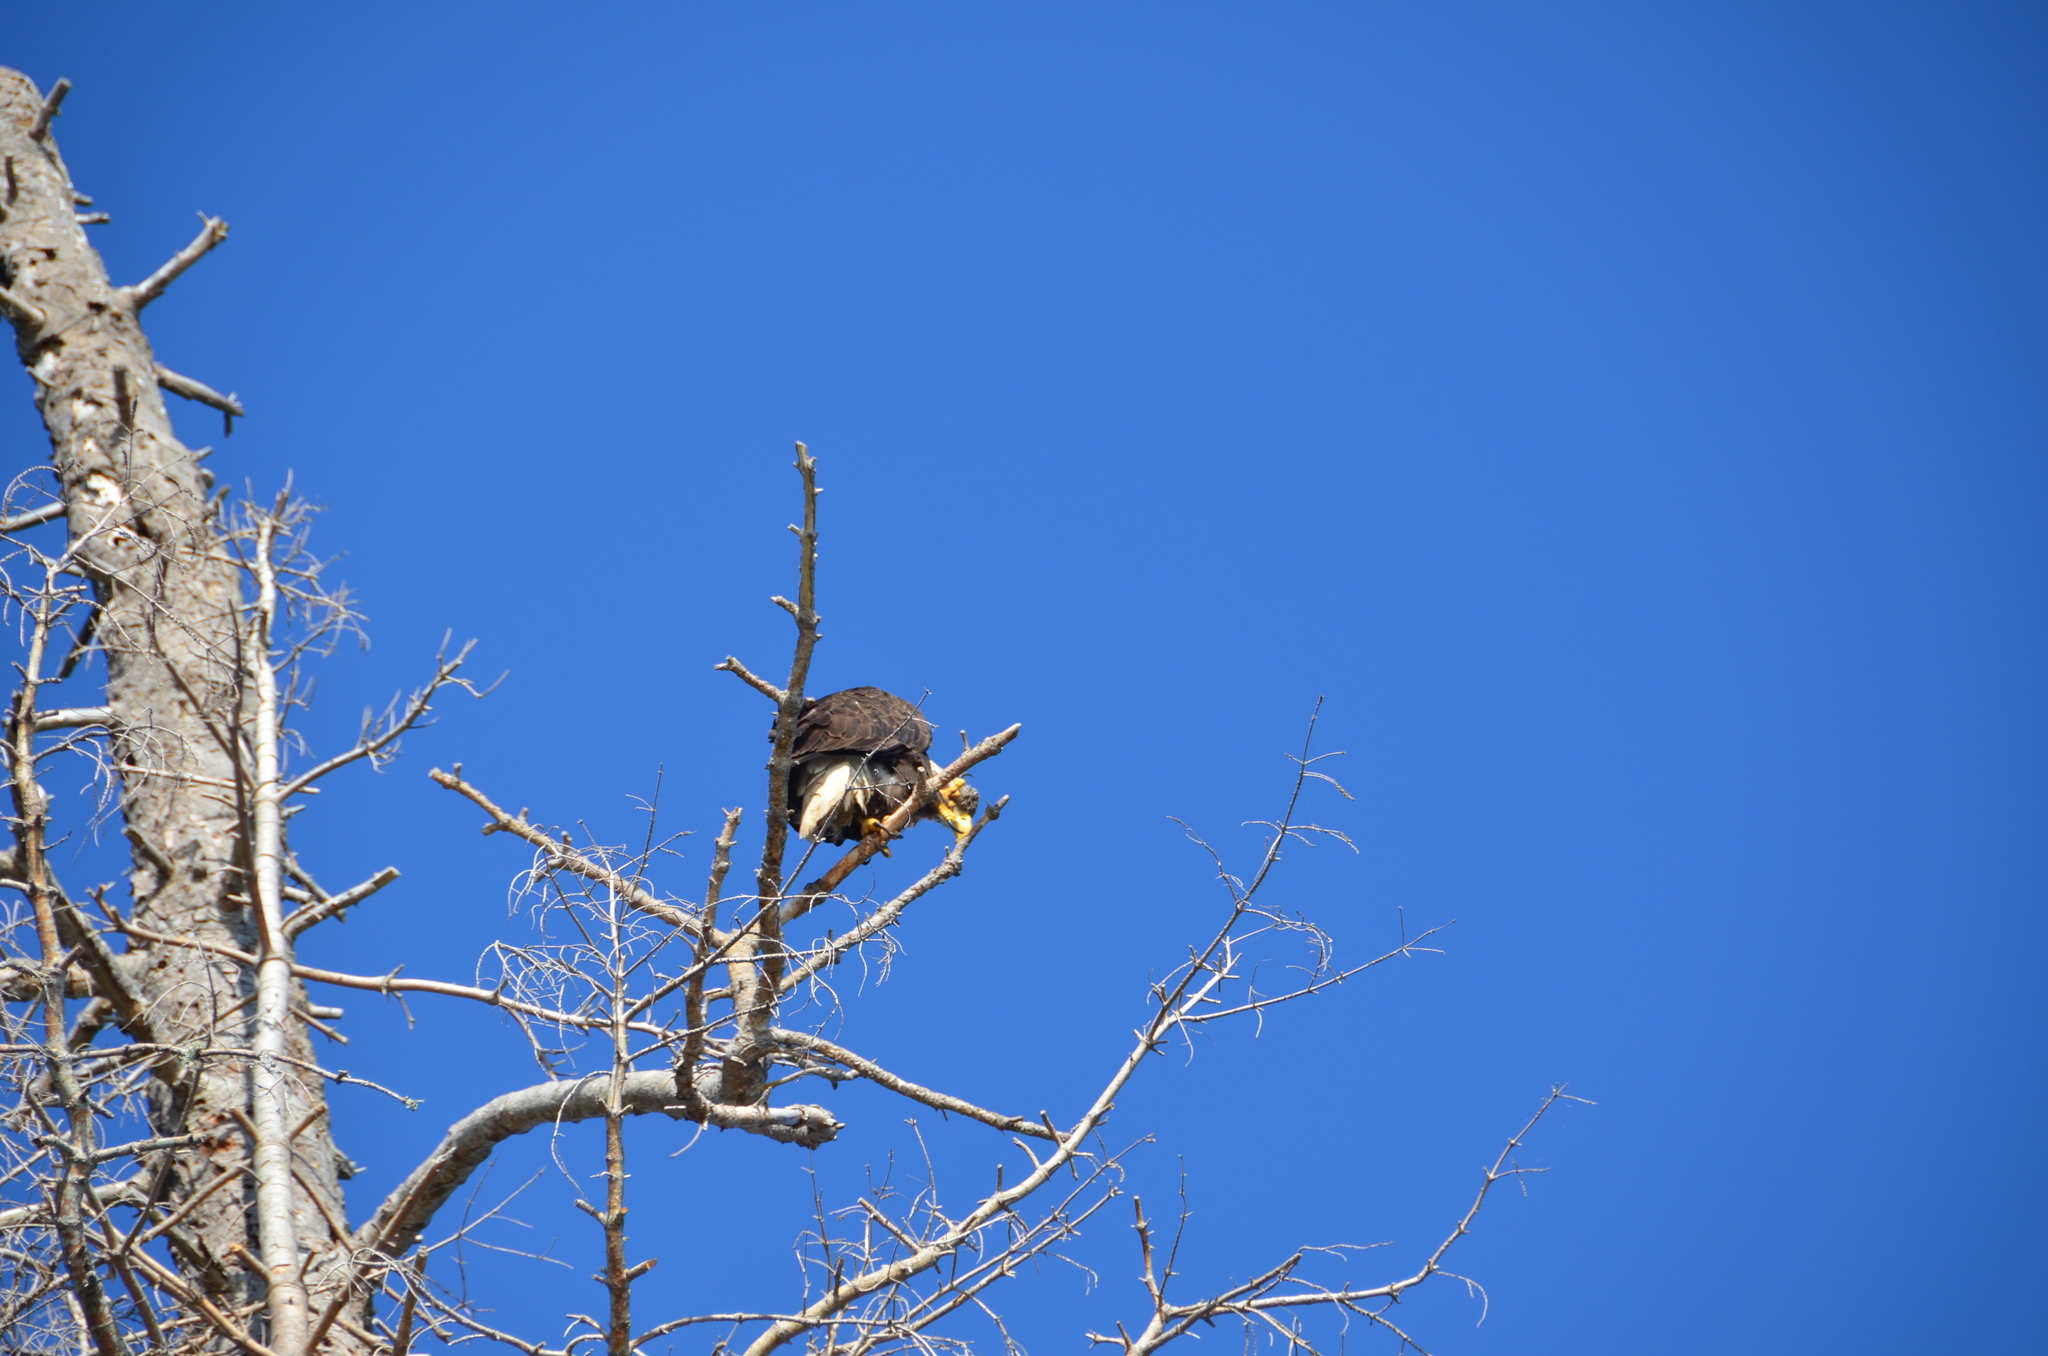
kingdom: Animalia
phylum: Chordata
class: Aves
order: Accipitriformes
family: Accipitridae
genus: Haliaeetus
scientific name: Haliaeetus leucocephalus
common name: Bald eagle
